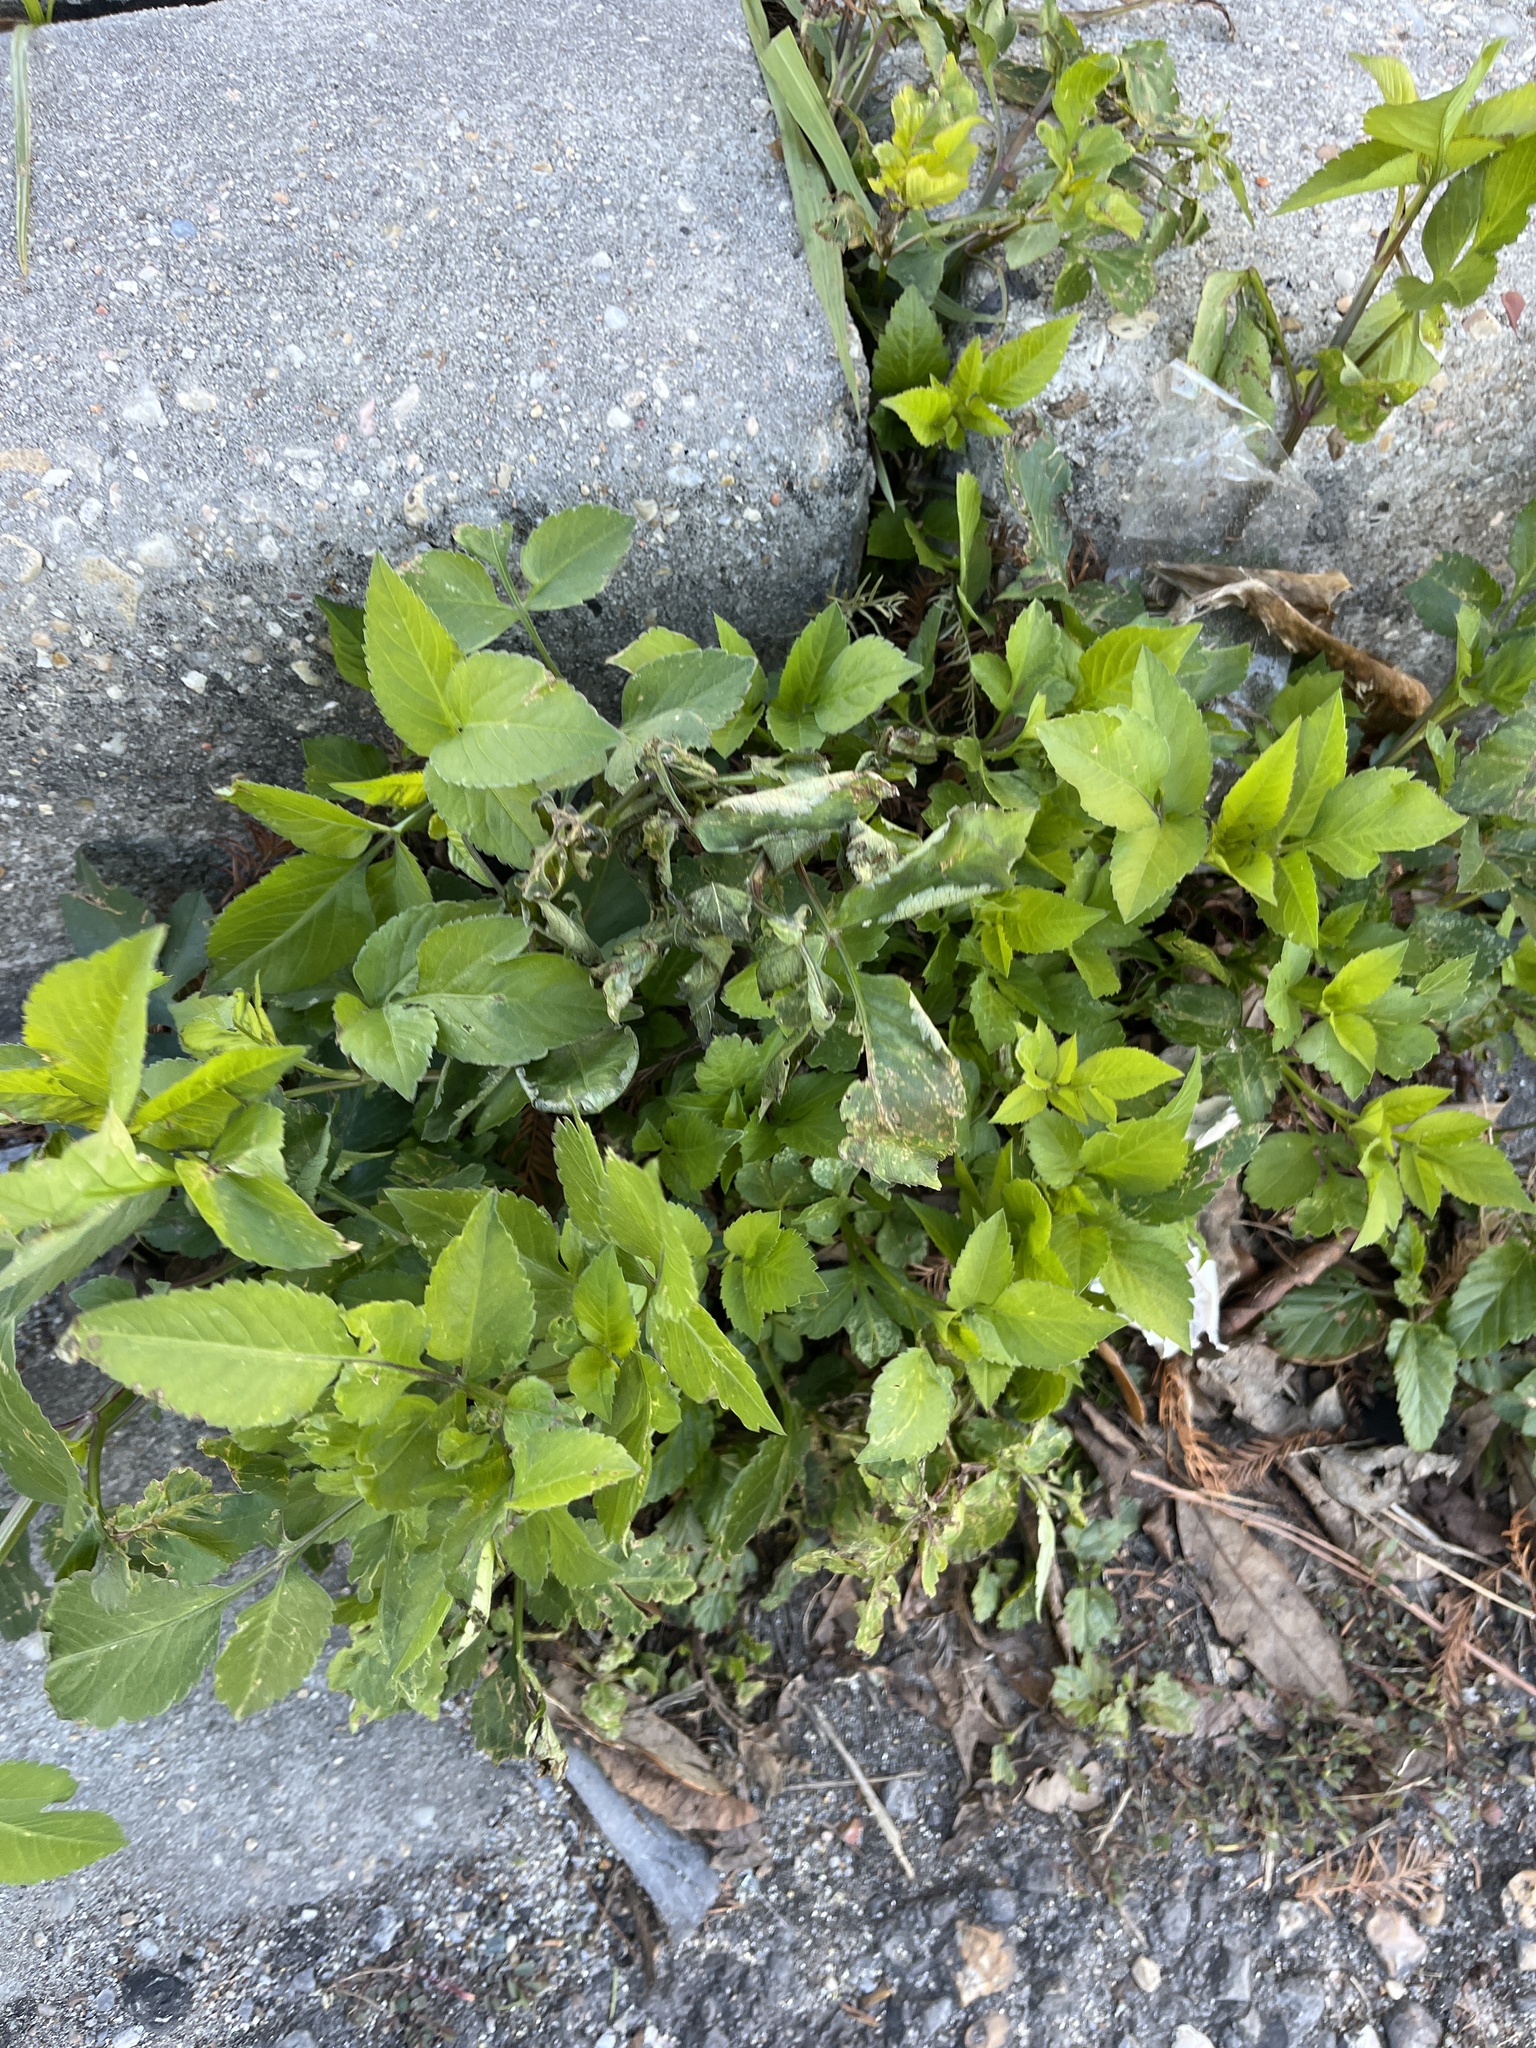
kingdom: Plantae
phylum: Tracheophyta
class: Magnoliopsida
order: Asterales
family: Asteraceae
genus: Bidens
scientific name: Bidens alba
